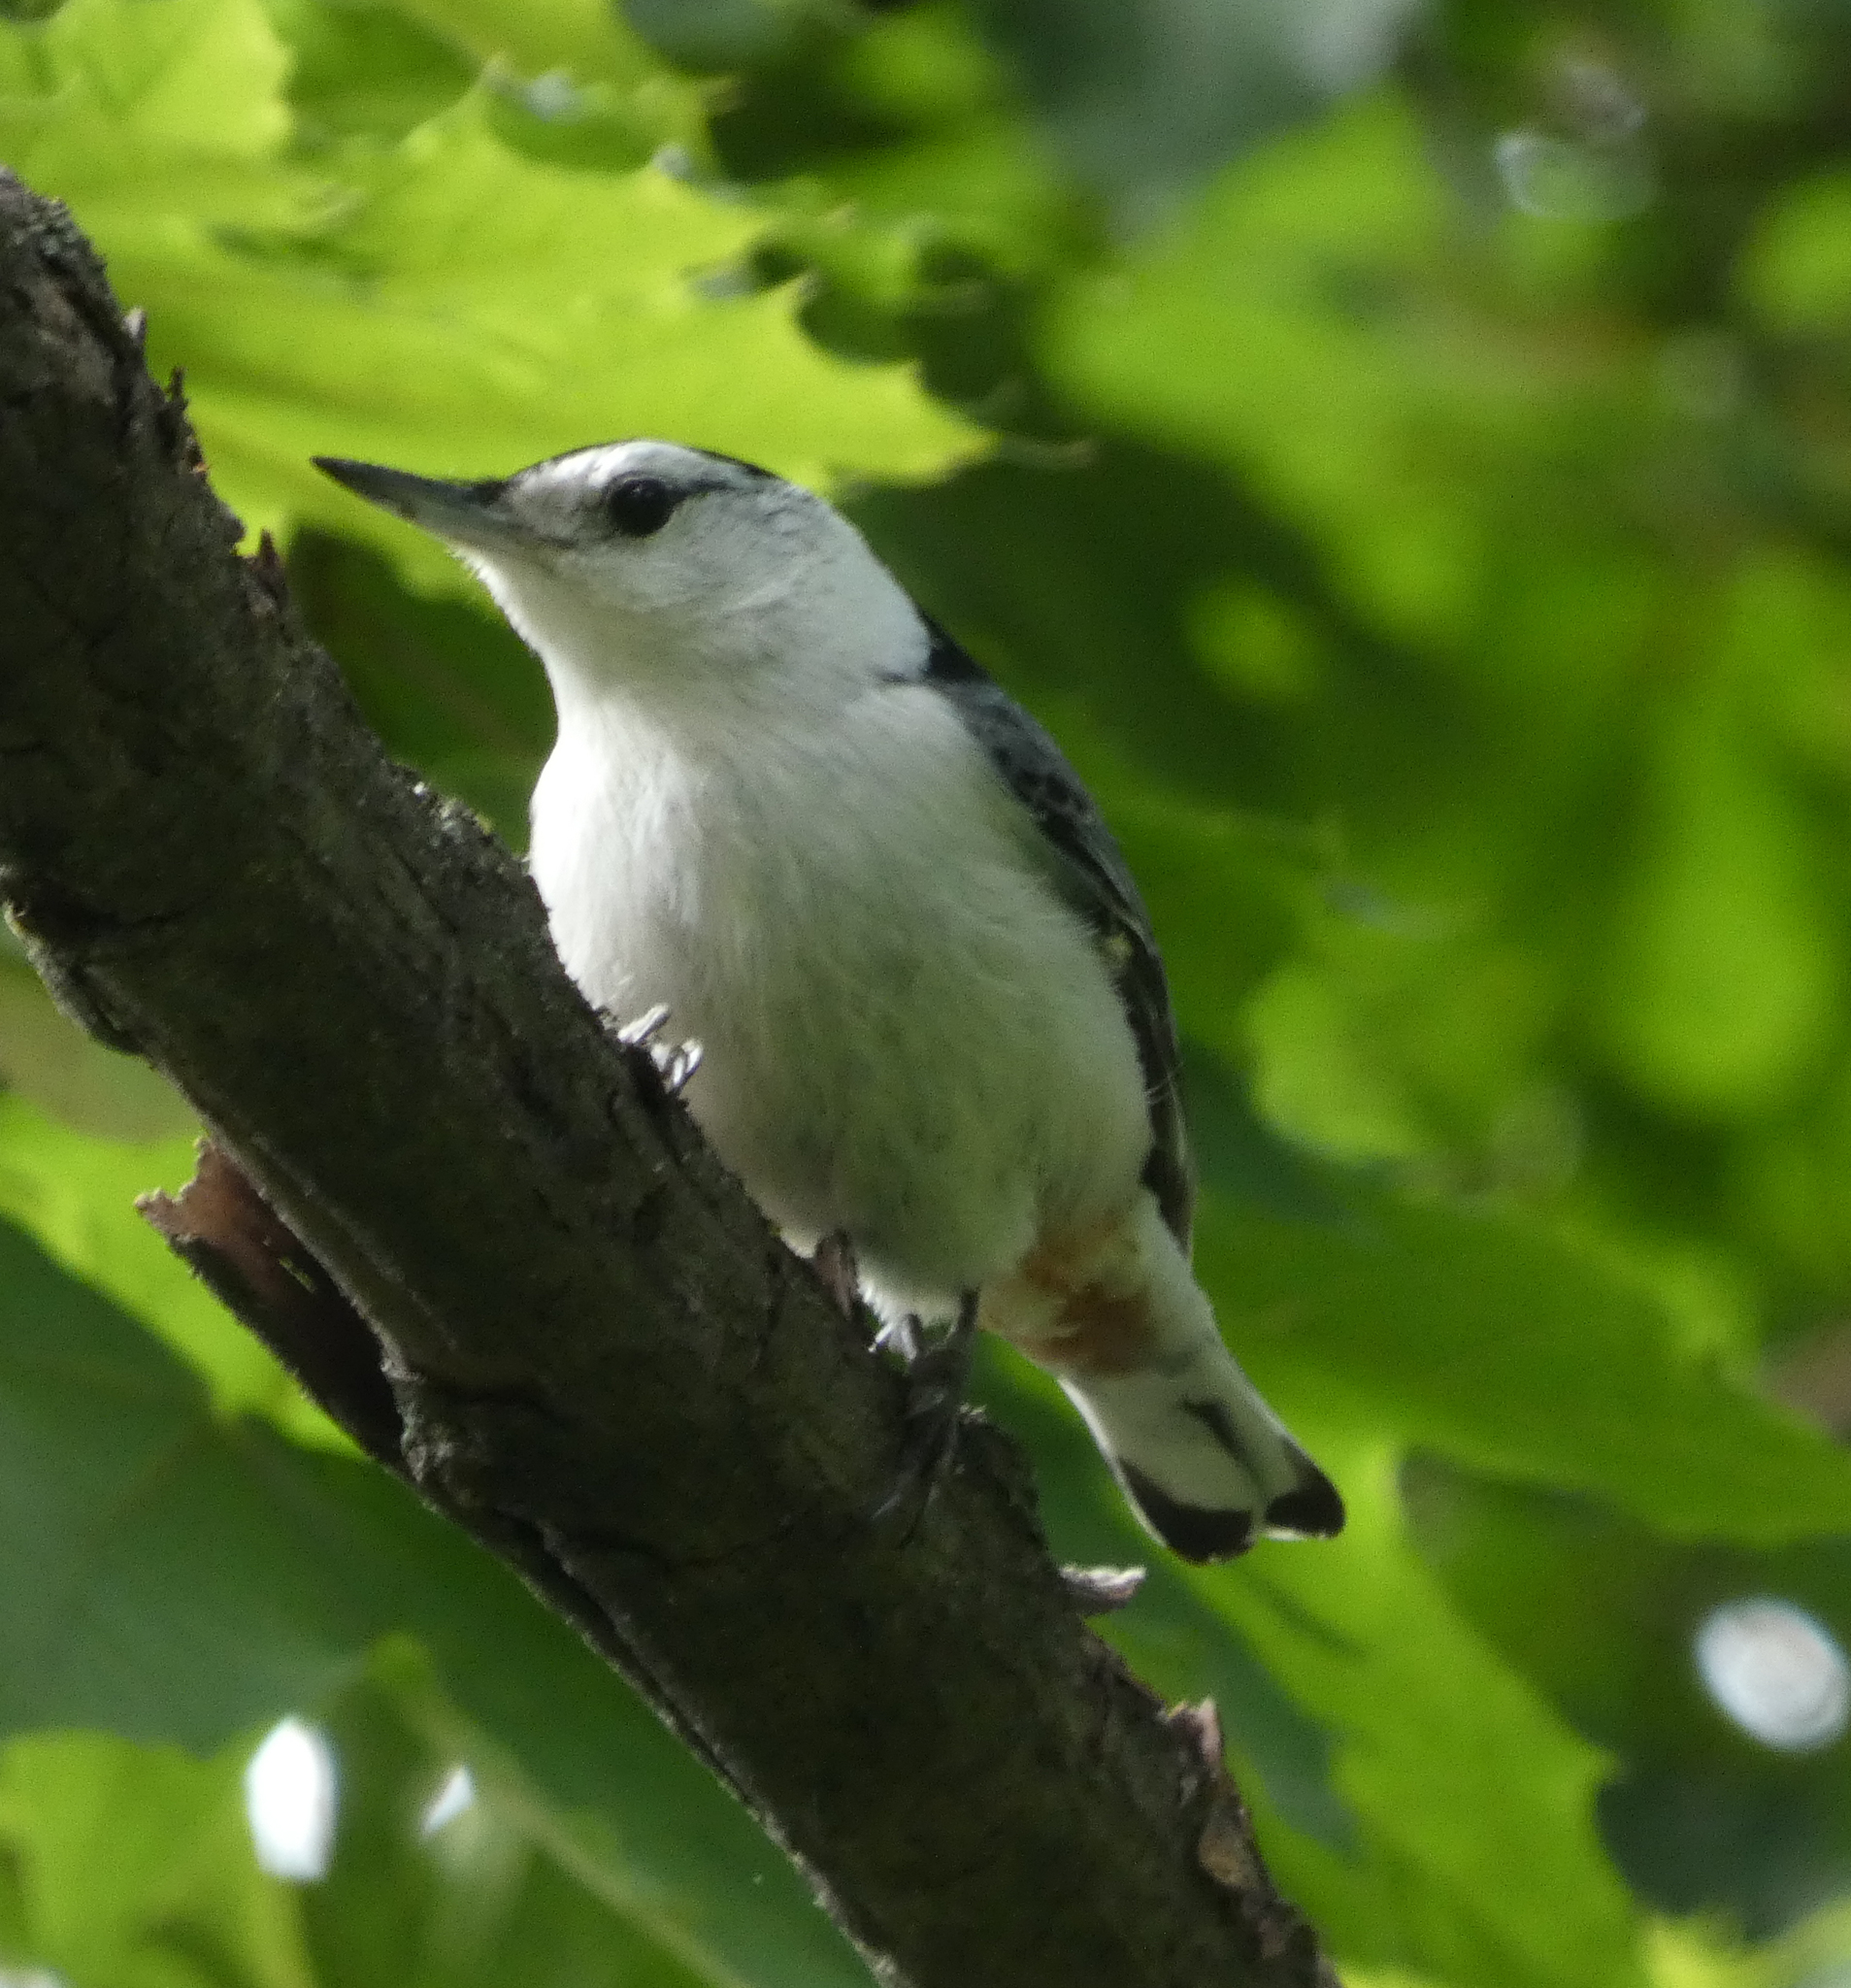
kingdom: Animalia
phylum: Chordata
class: Aves
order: Passeriformes
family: Sittidae
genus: Sitta
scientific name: Sitta carolinensis
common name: White-breasted nuthatch
